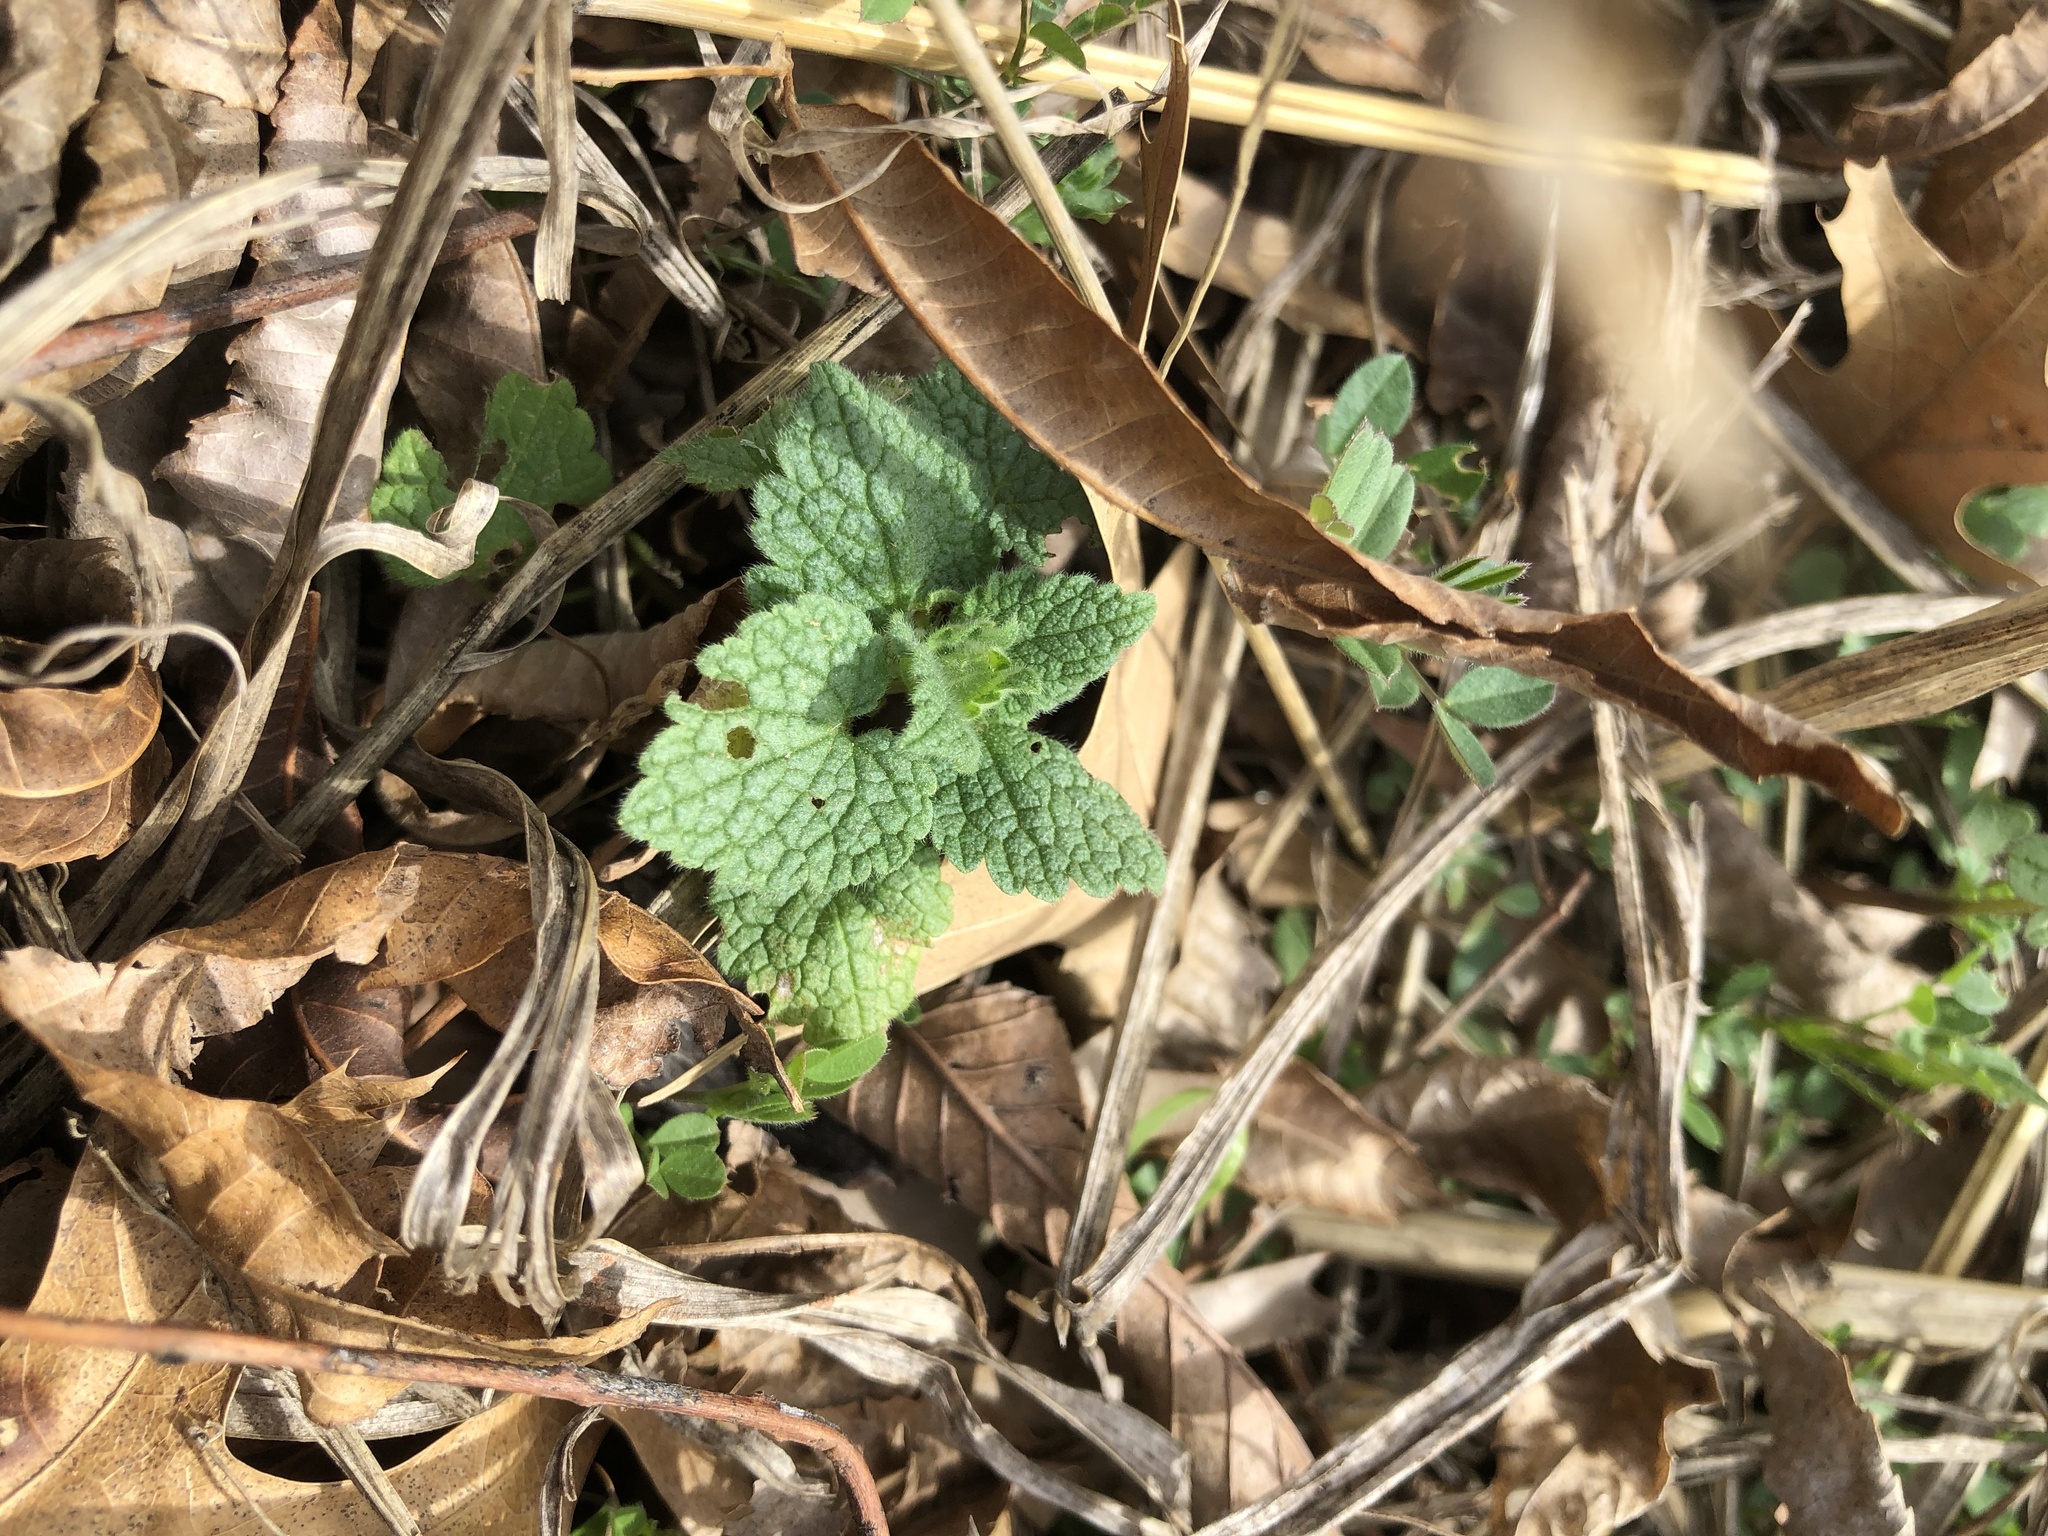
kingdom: Plantae
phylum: Tracheophyta
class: Magnoliopsida
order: Lamiales
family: Lamiaceae
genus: Lamium
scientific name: Lamium purpureum
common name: Red dead-nettle
